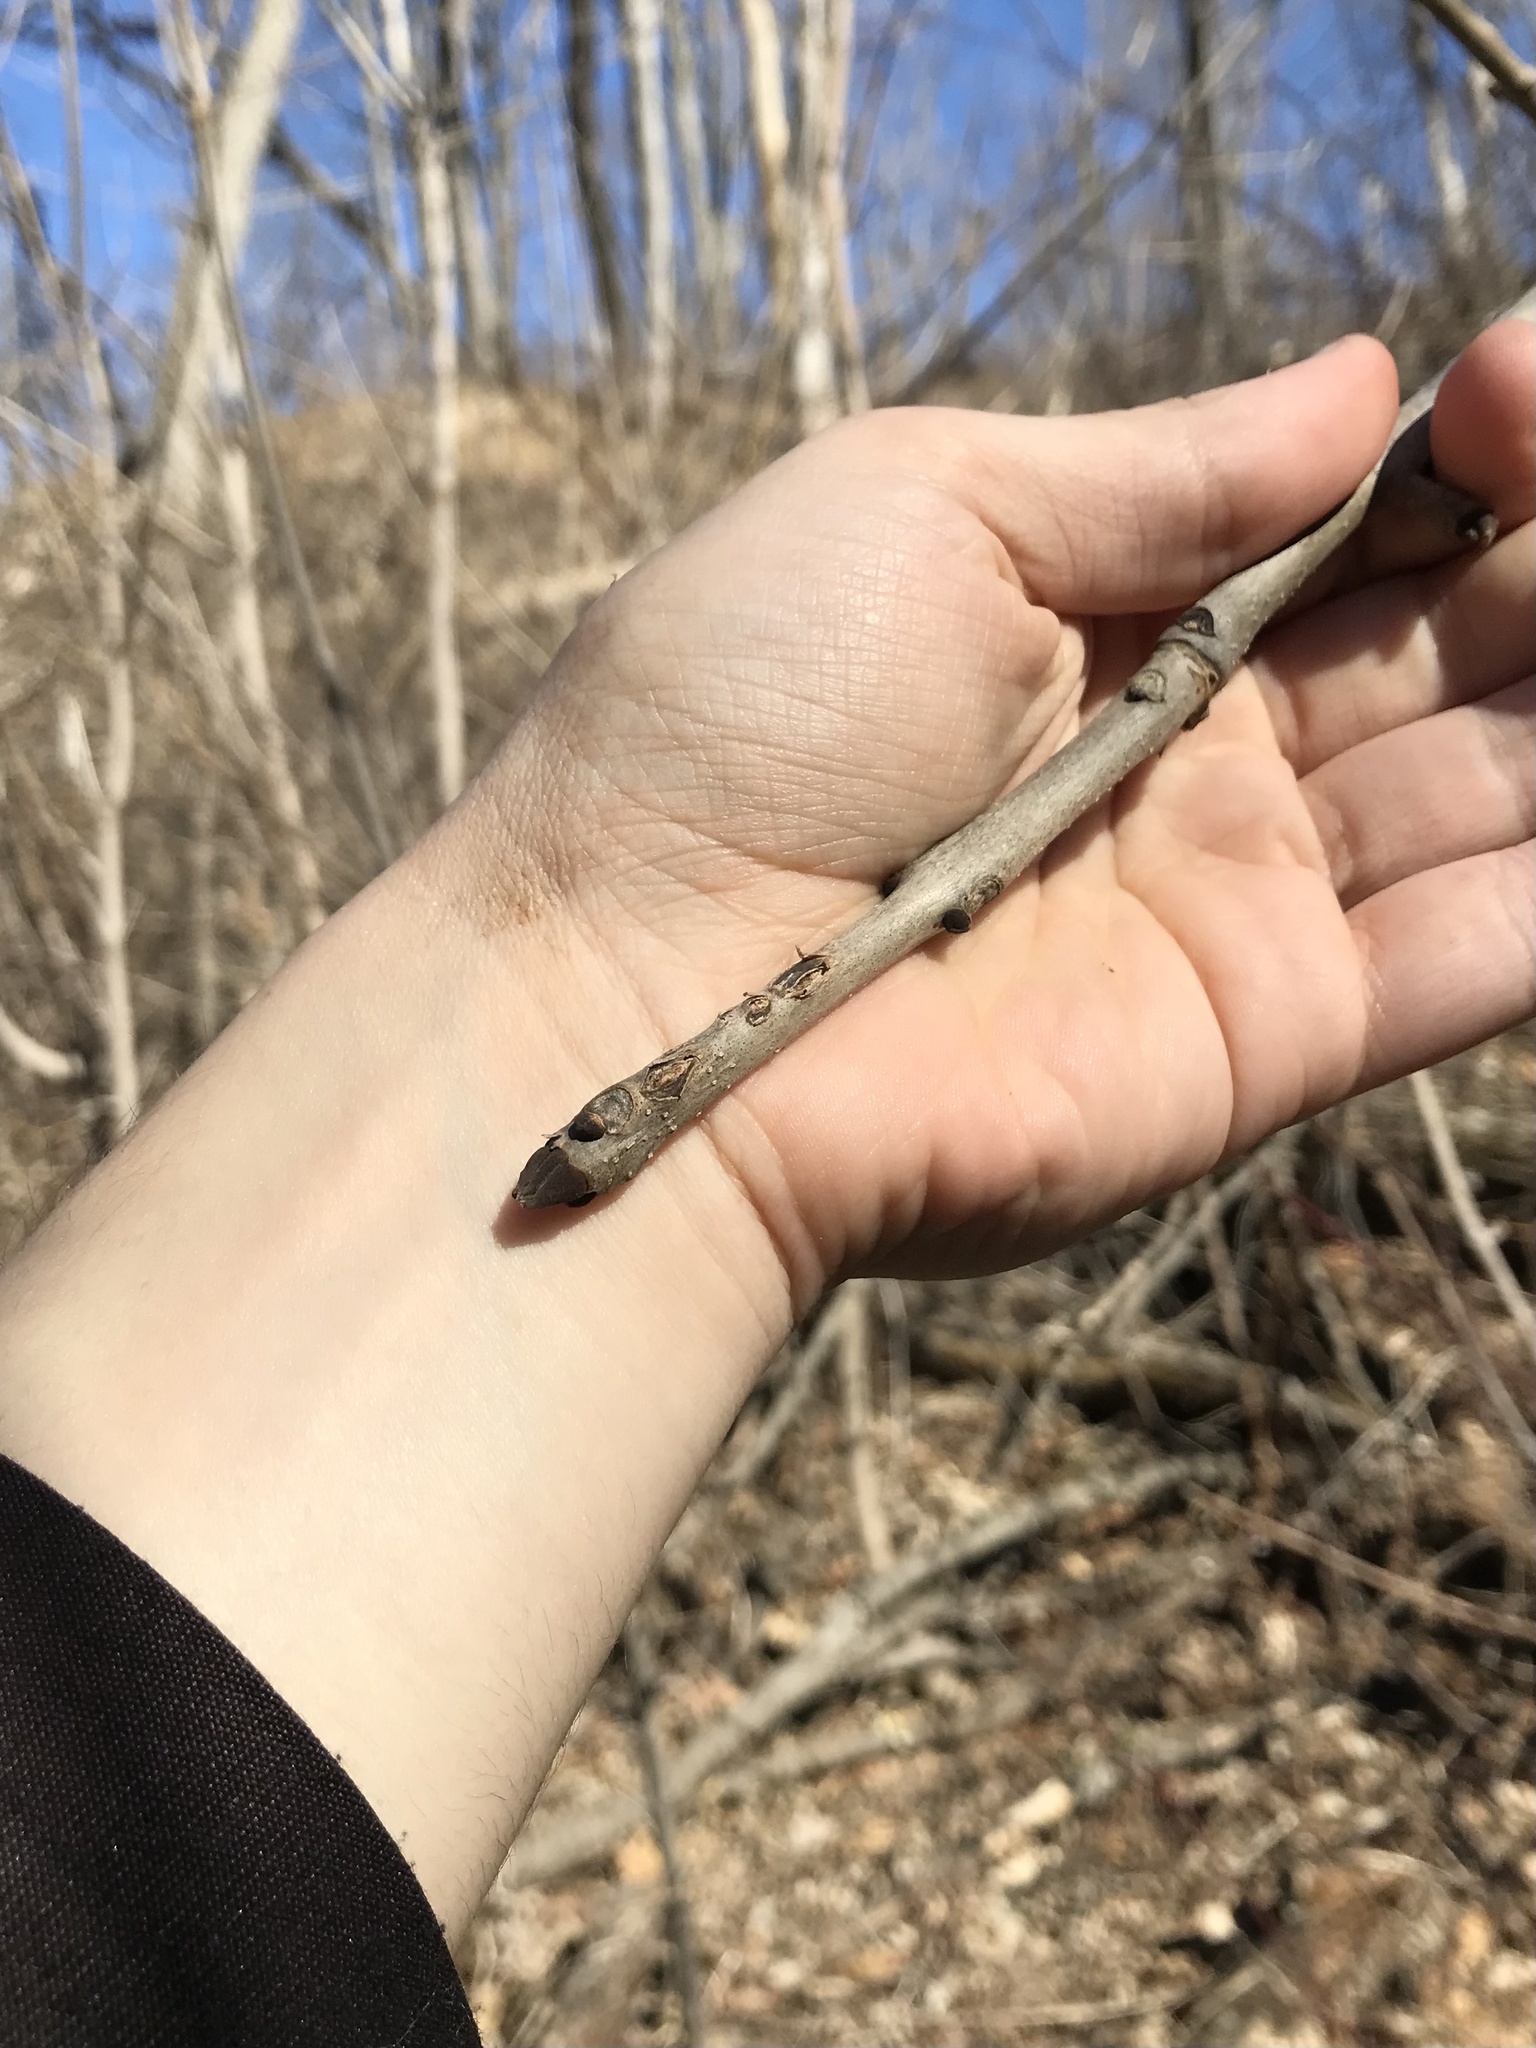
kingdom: Plantae
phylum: Tracheophyta
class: Magnoliopsida
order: Lamiales
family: Oleaceae
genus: Fraxinus
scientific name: Fraxinus nigra
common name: Black ash
